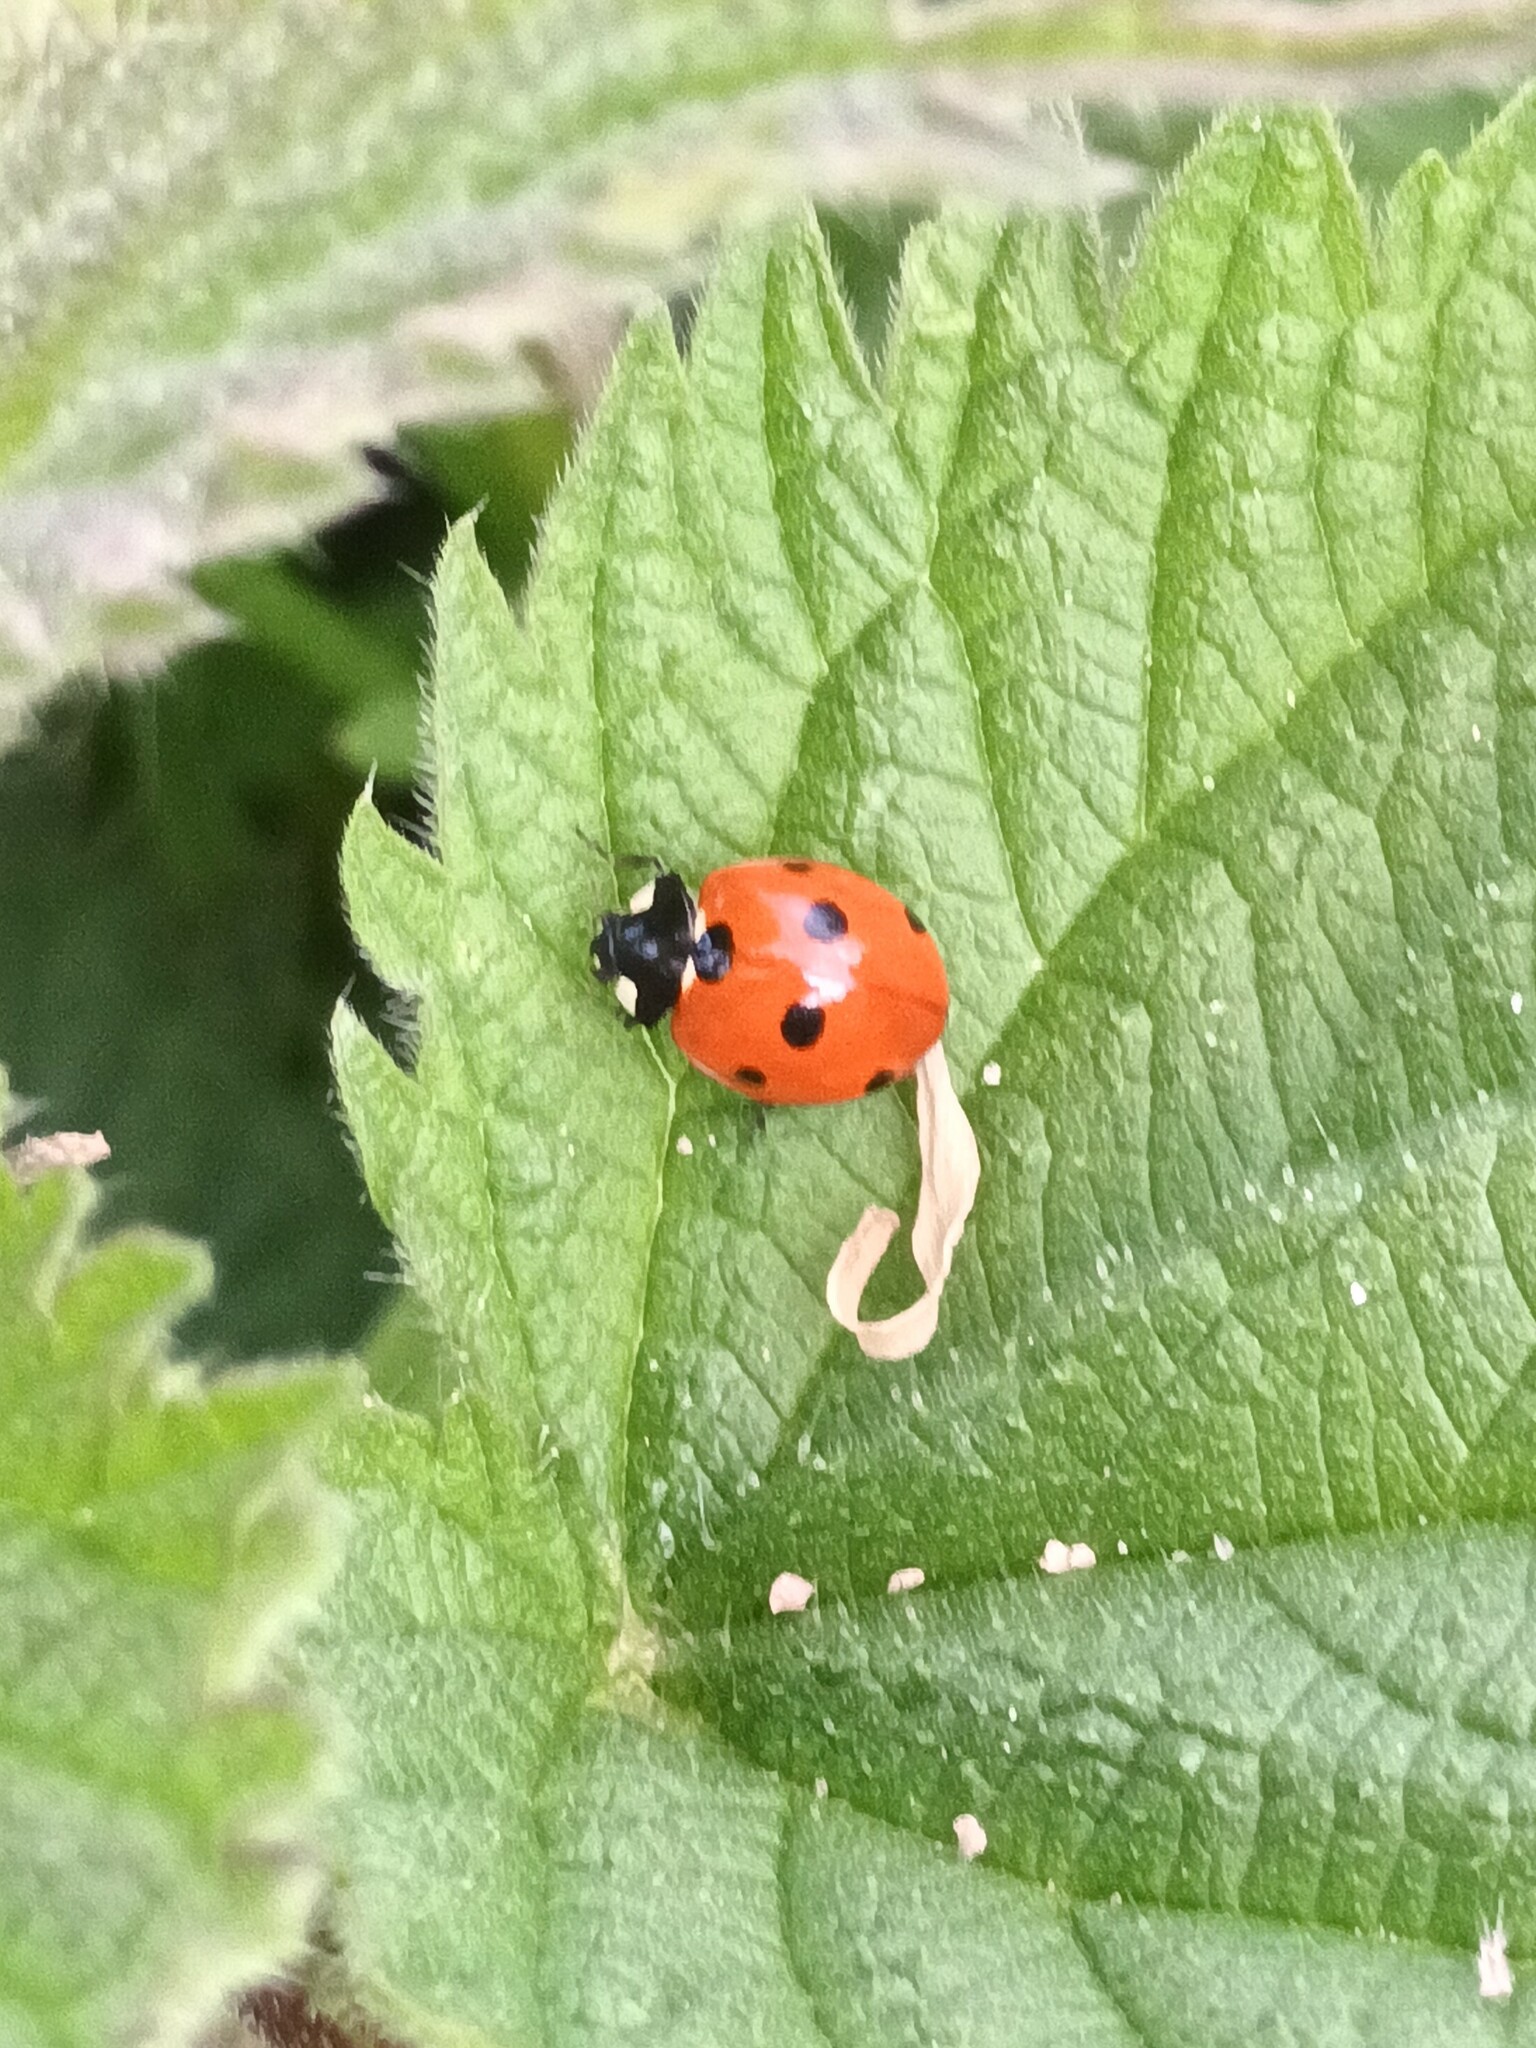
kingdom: Animalia
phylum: Arthropoda
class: Insecta
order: Coleoptera
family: Coccinellidae
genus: Coccinella
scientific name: Coccinella septempunctata
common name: Sevenspotted lady beetle
